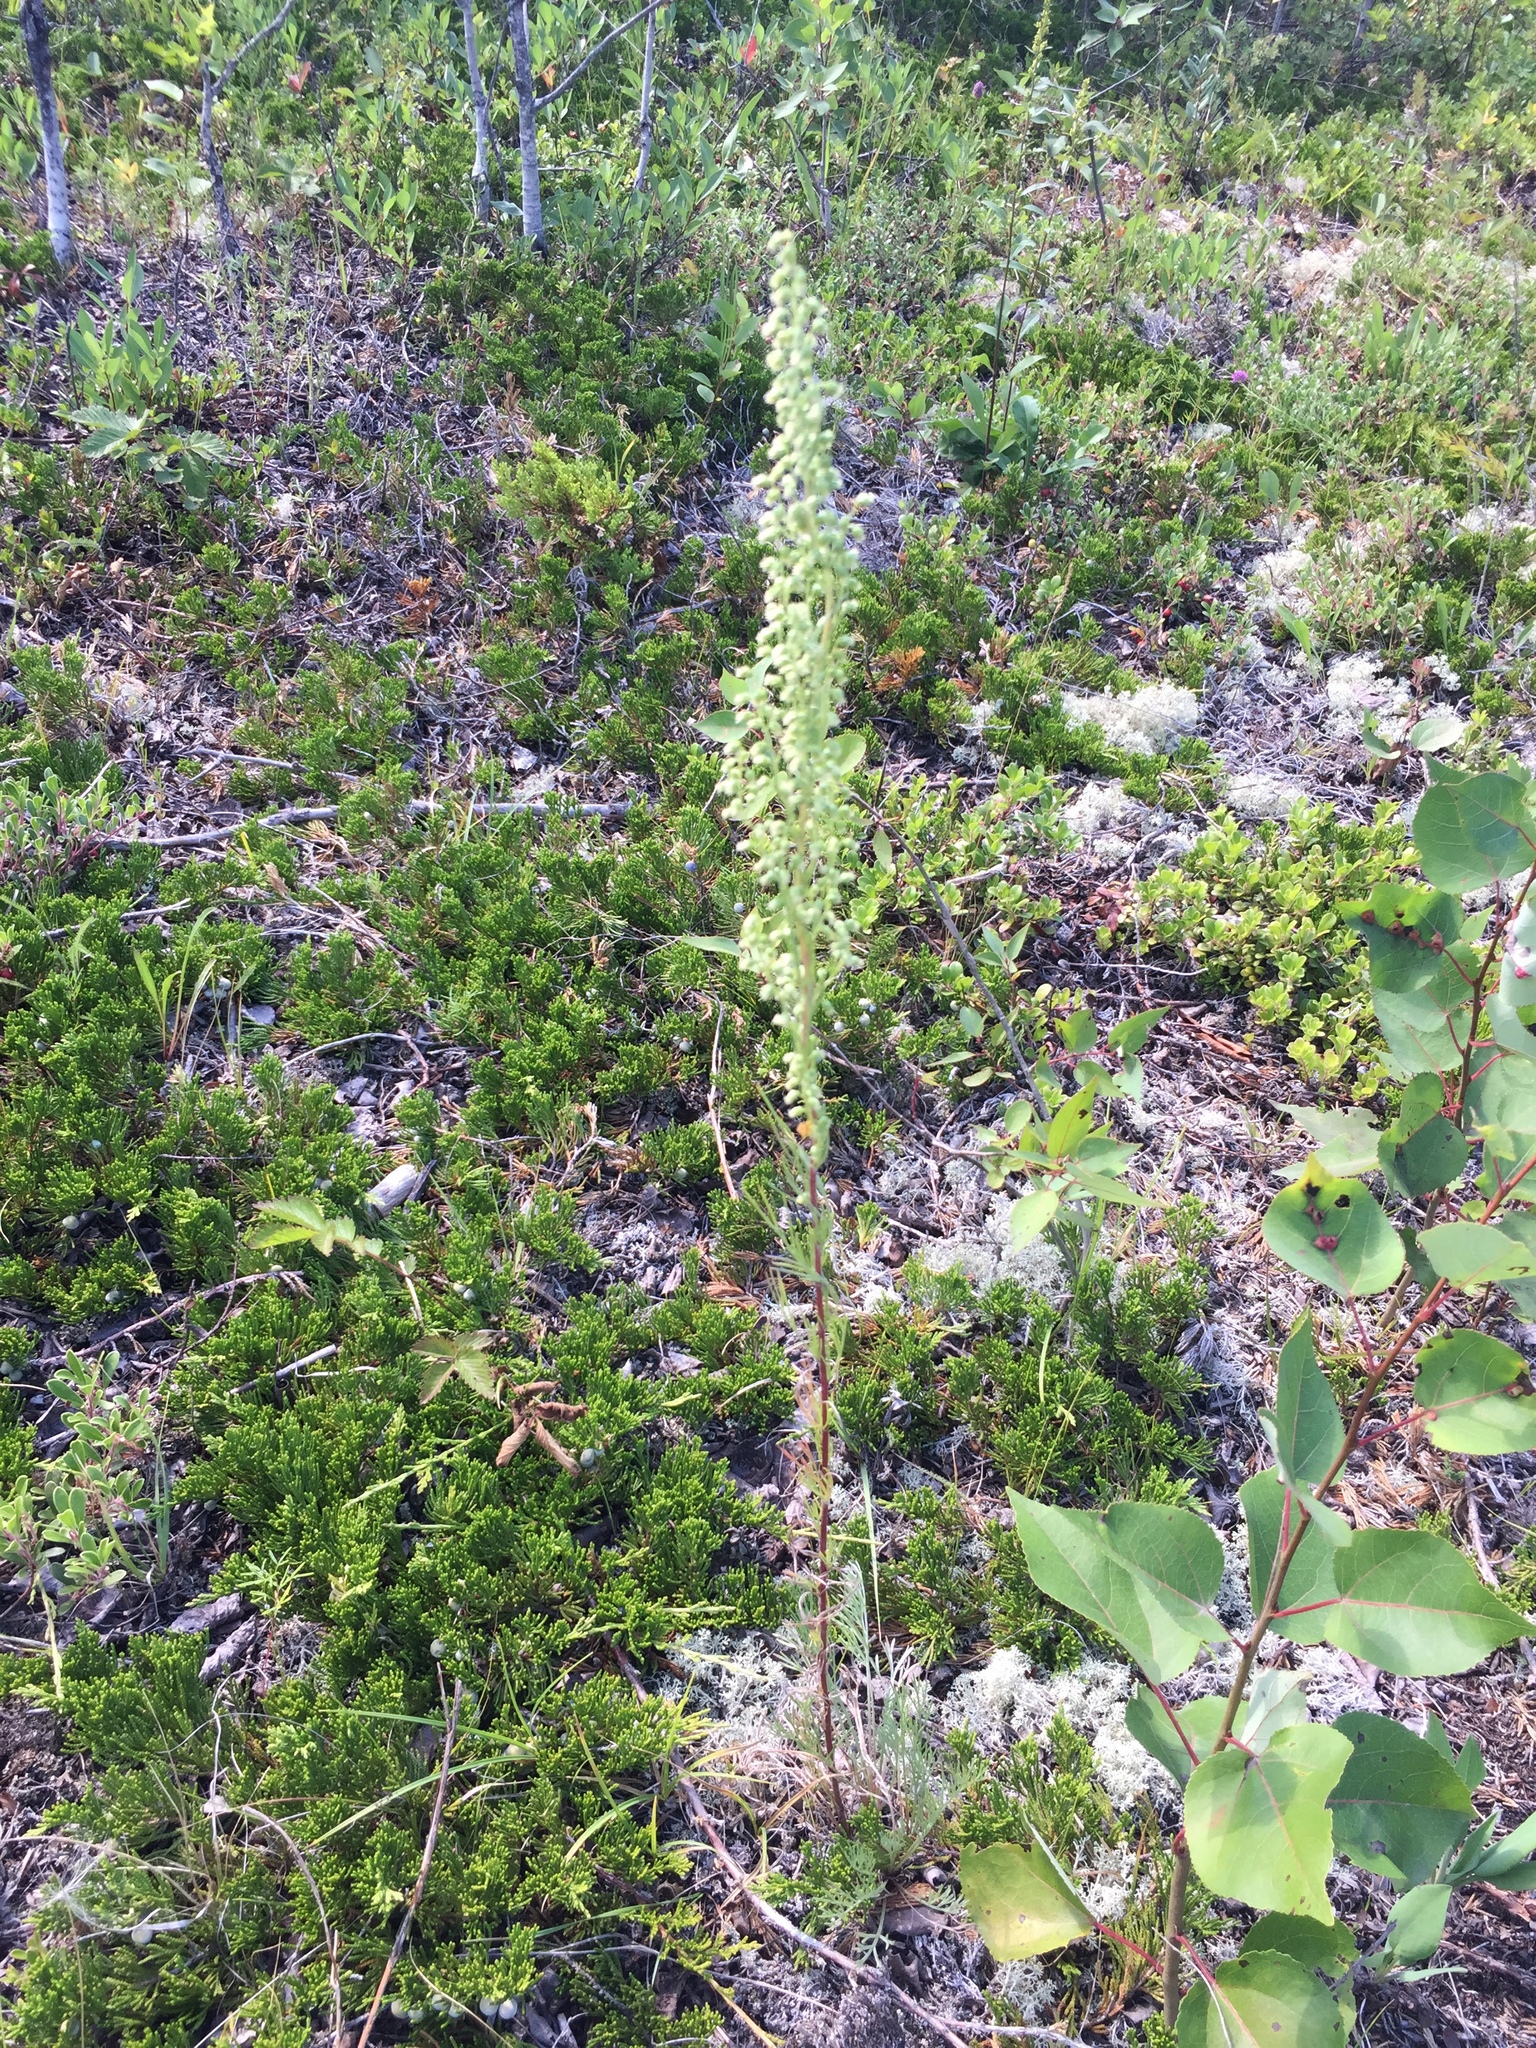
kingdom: Plantae
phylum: Tracheophyta
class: Magnoliopsida
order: Asterales
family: Asteraceae
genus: Artemisia
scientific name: Artemisia campestris
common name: Field wormwood
